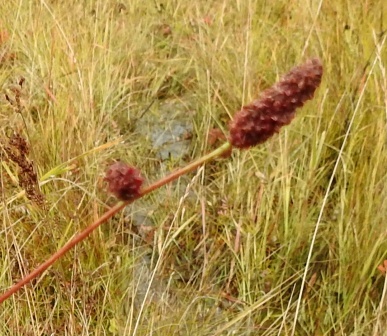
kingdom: Plantae
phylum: Tracheophyta
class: Magnoliopsida
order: Rosales
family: Rosaceae
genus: Sanguisorba
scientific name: Sanguisorba officinalis
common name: Great burnet
